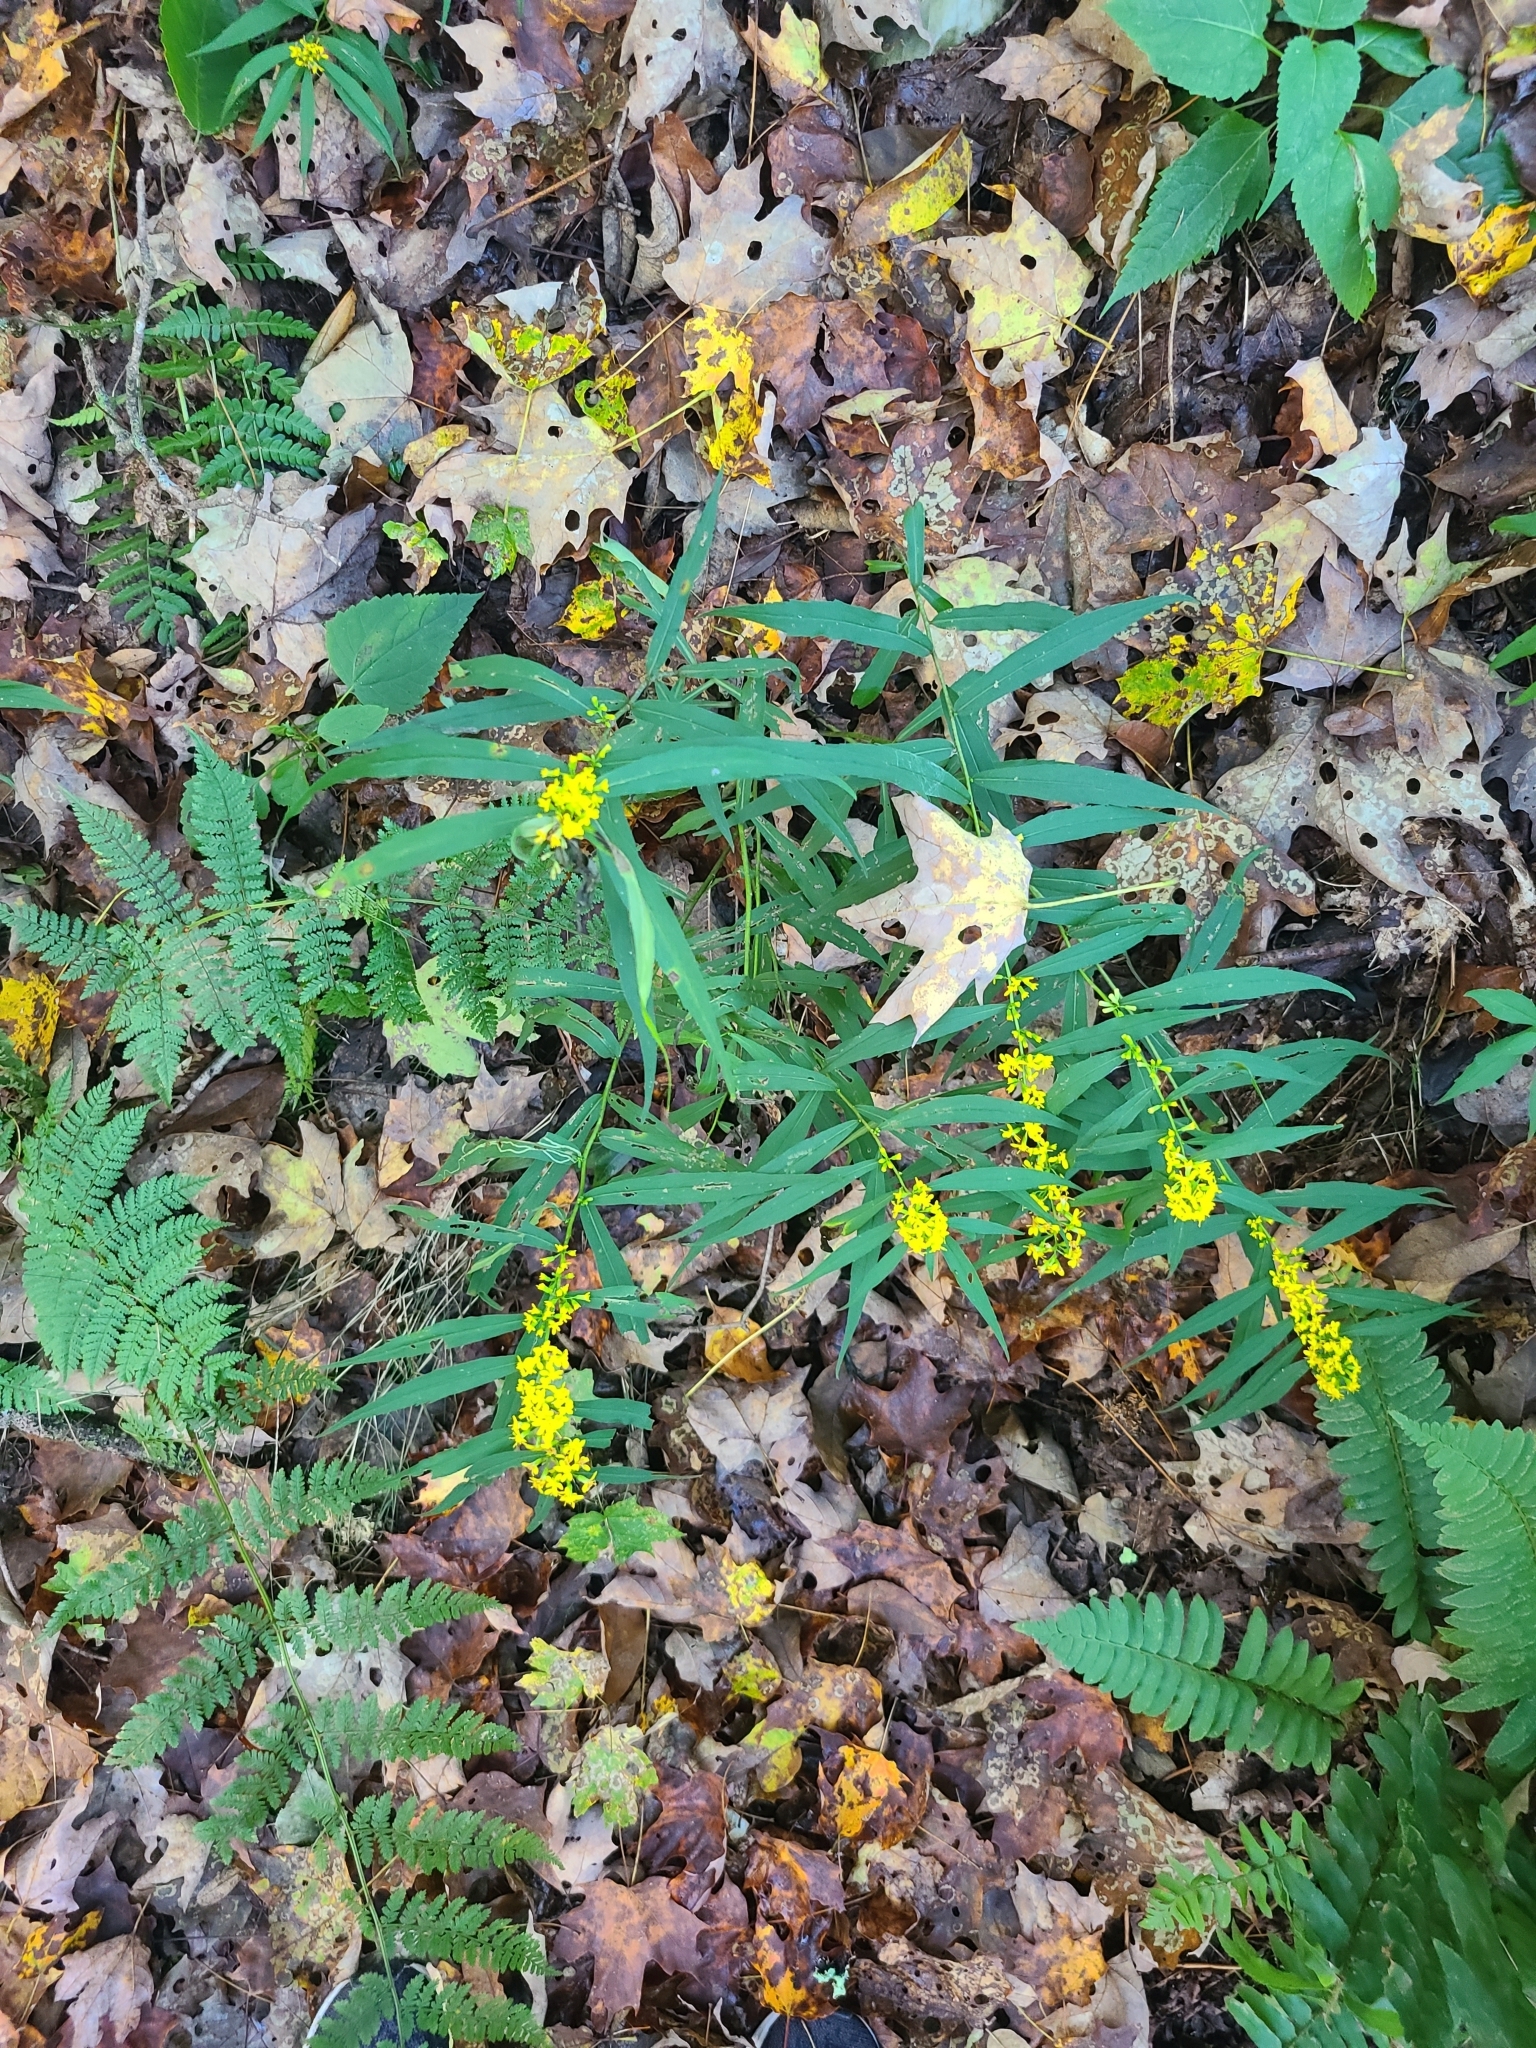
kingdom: Plantae
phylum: Tracheophyta
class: Magnoliopsida
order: Asterales
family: Asteraceae
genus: Solidago
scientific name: Solidago caesia
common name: Woodland goldenrod
